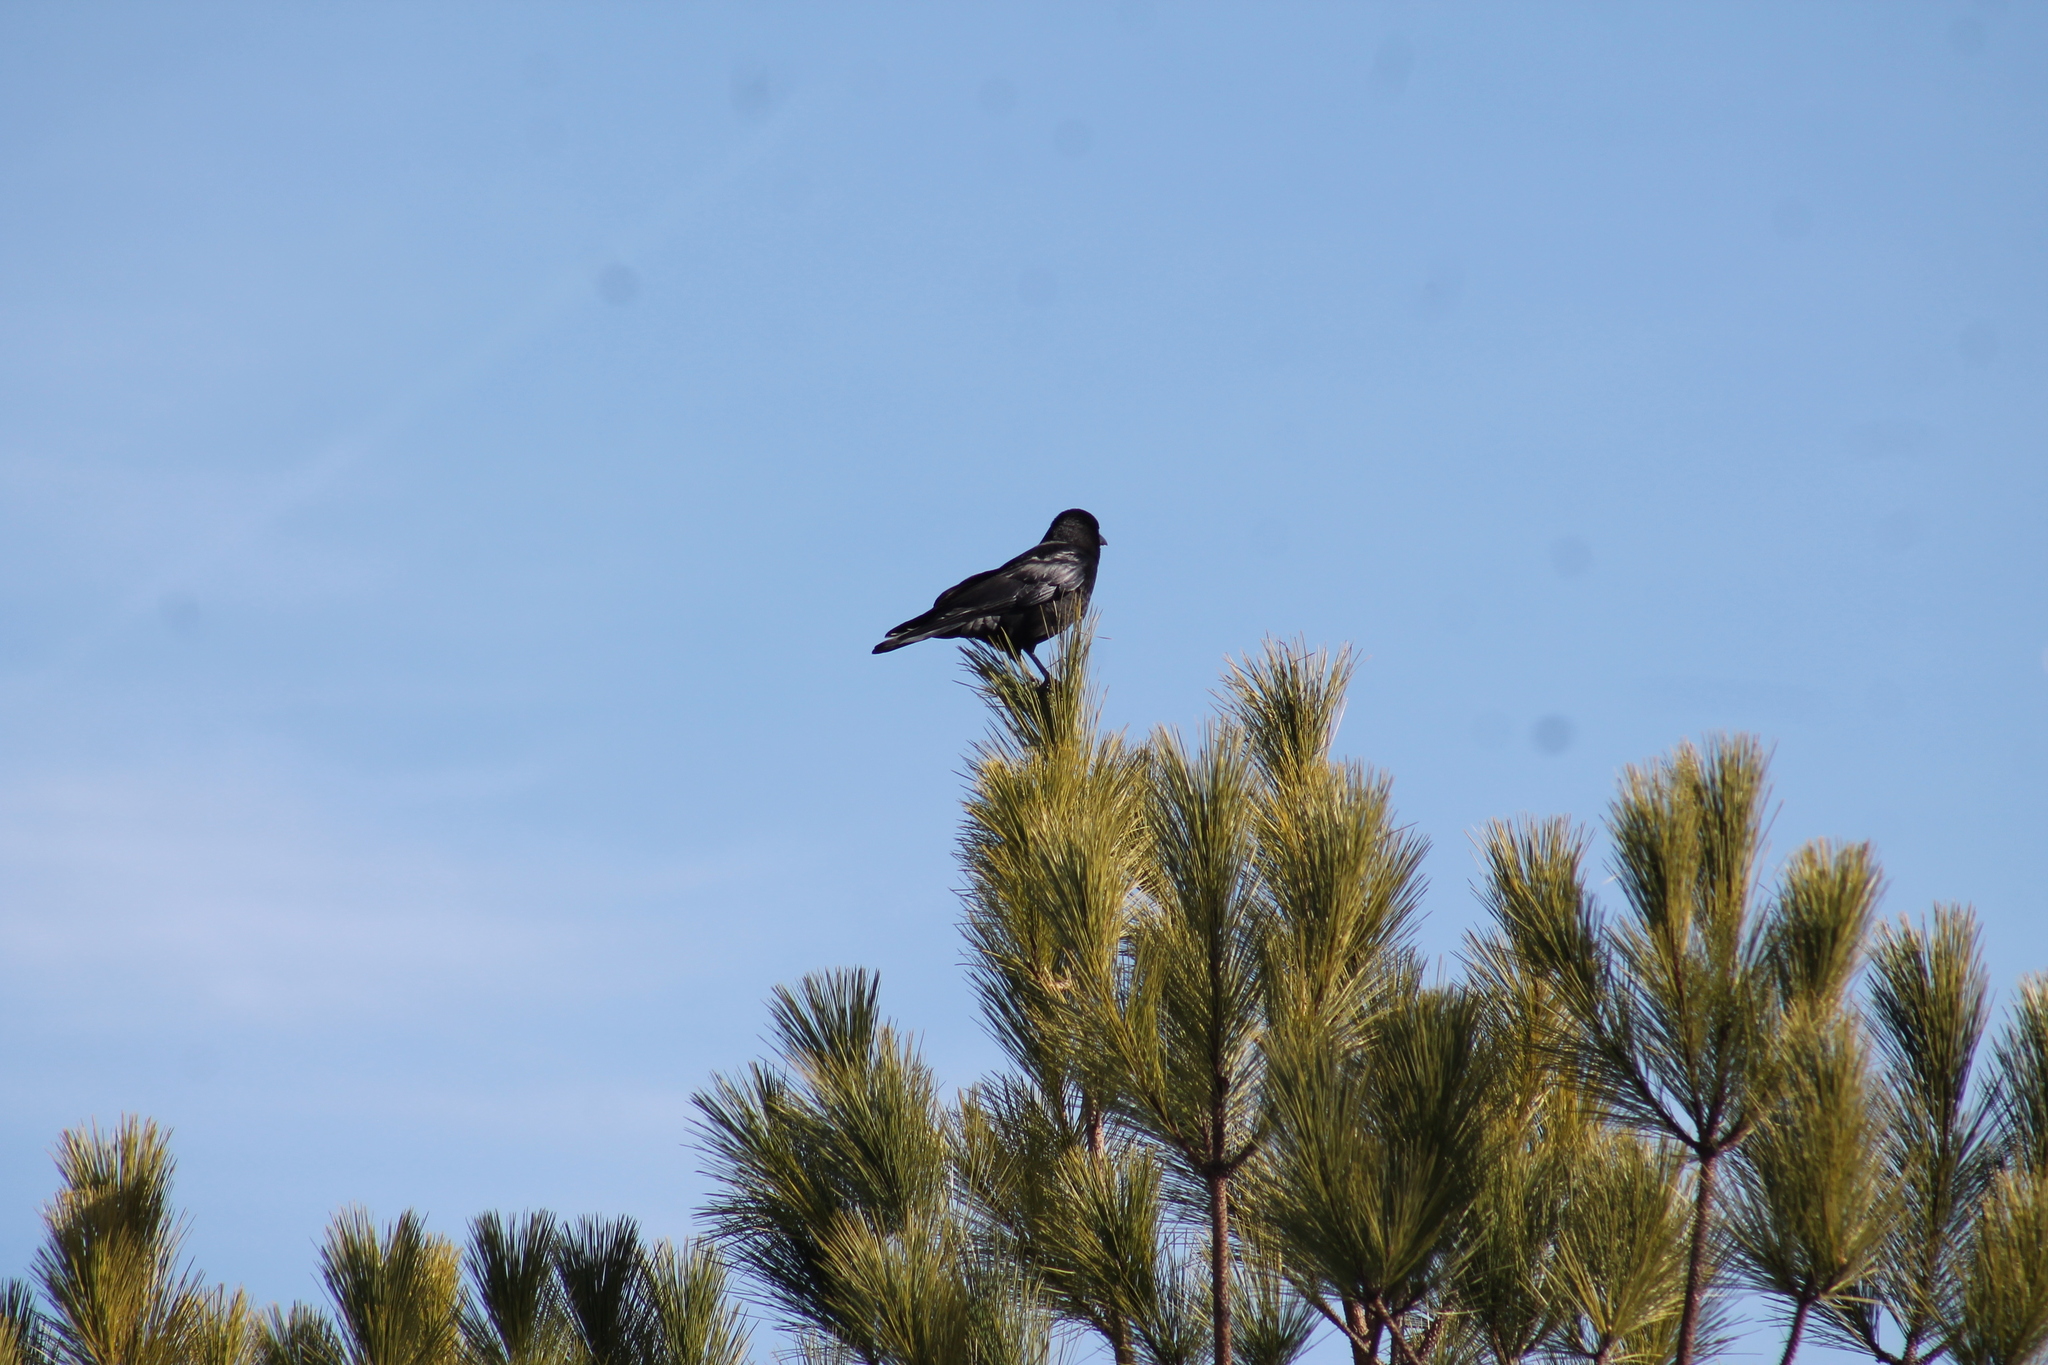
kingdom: Animalia
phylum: Chordata
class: Aves
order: Passeriformes
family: Corvidae
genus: Corvus
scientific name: Corvus brachyrhynchos
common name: American crow
